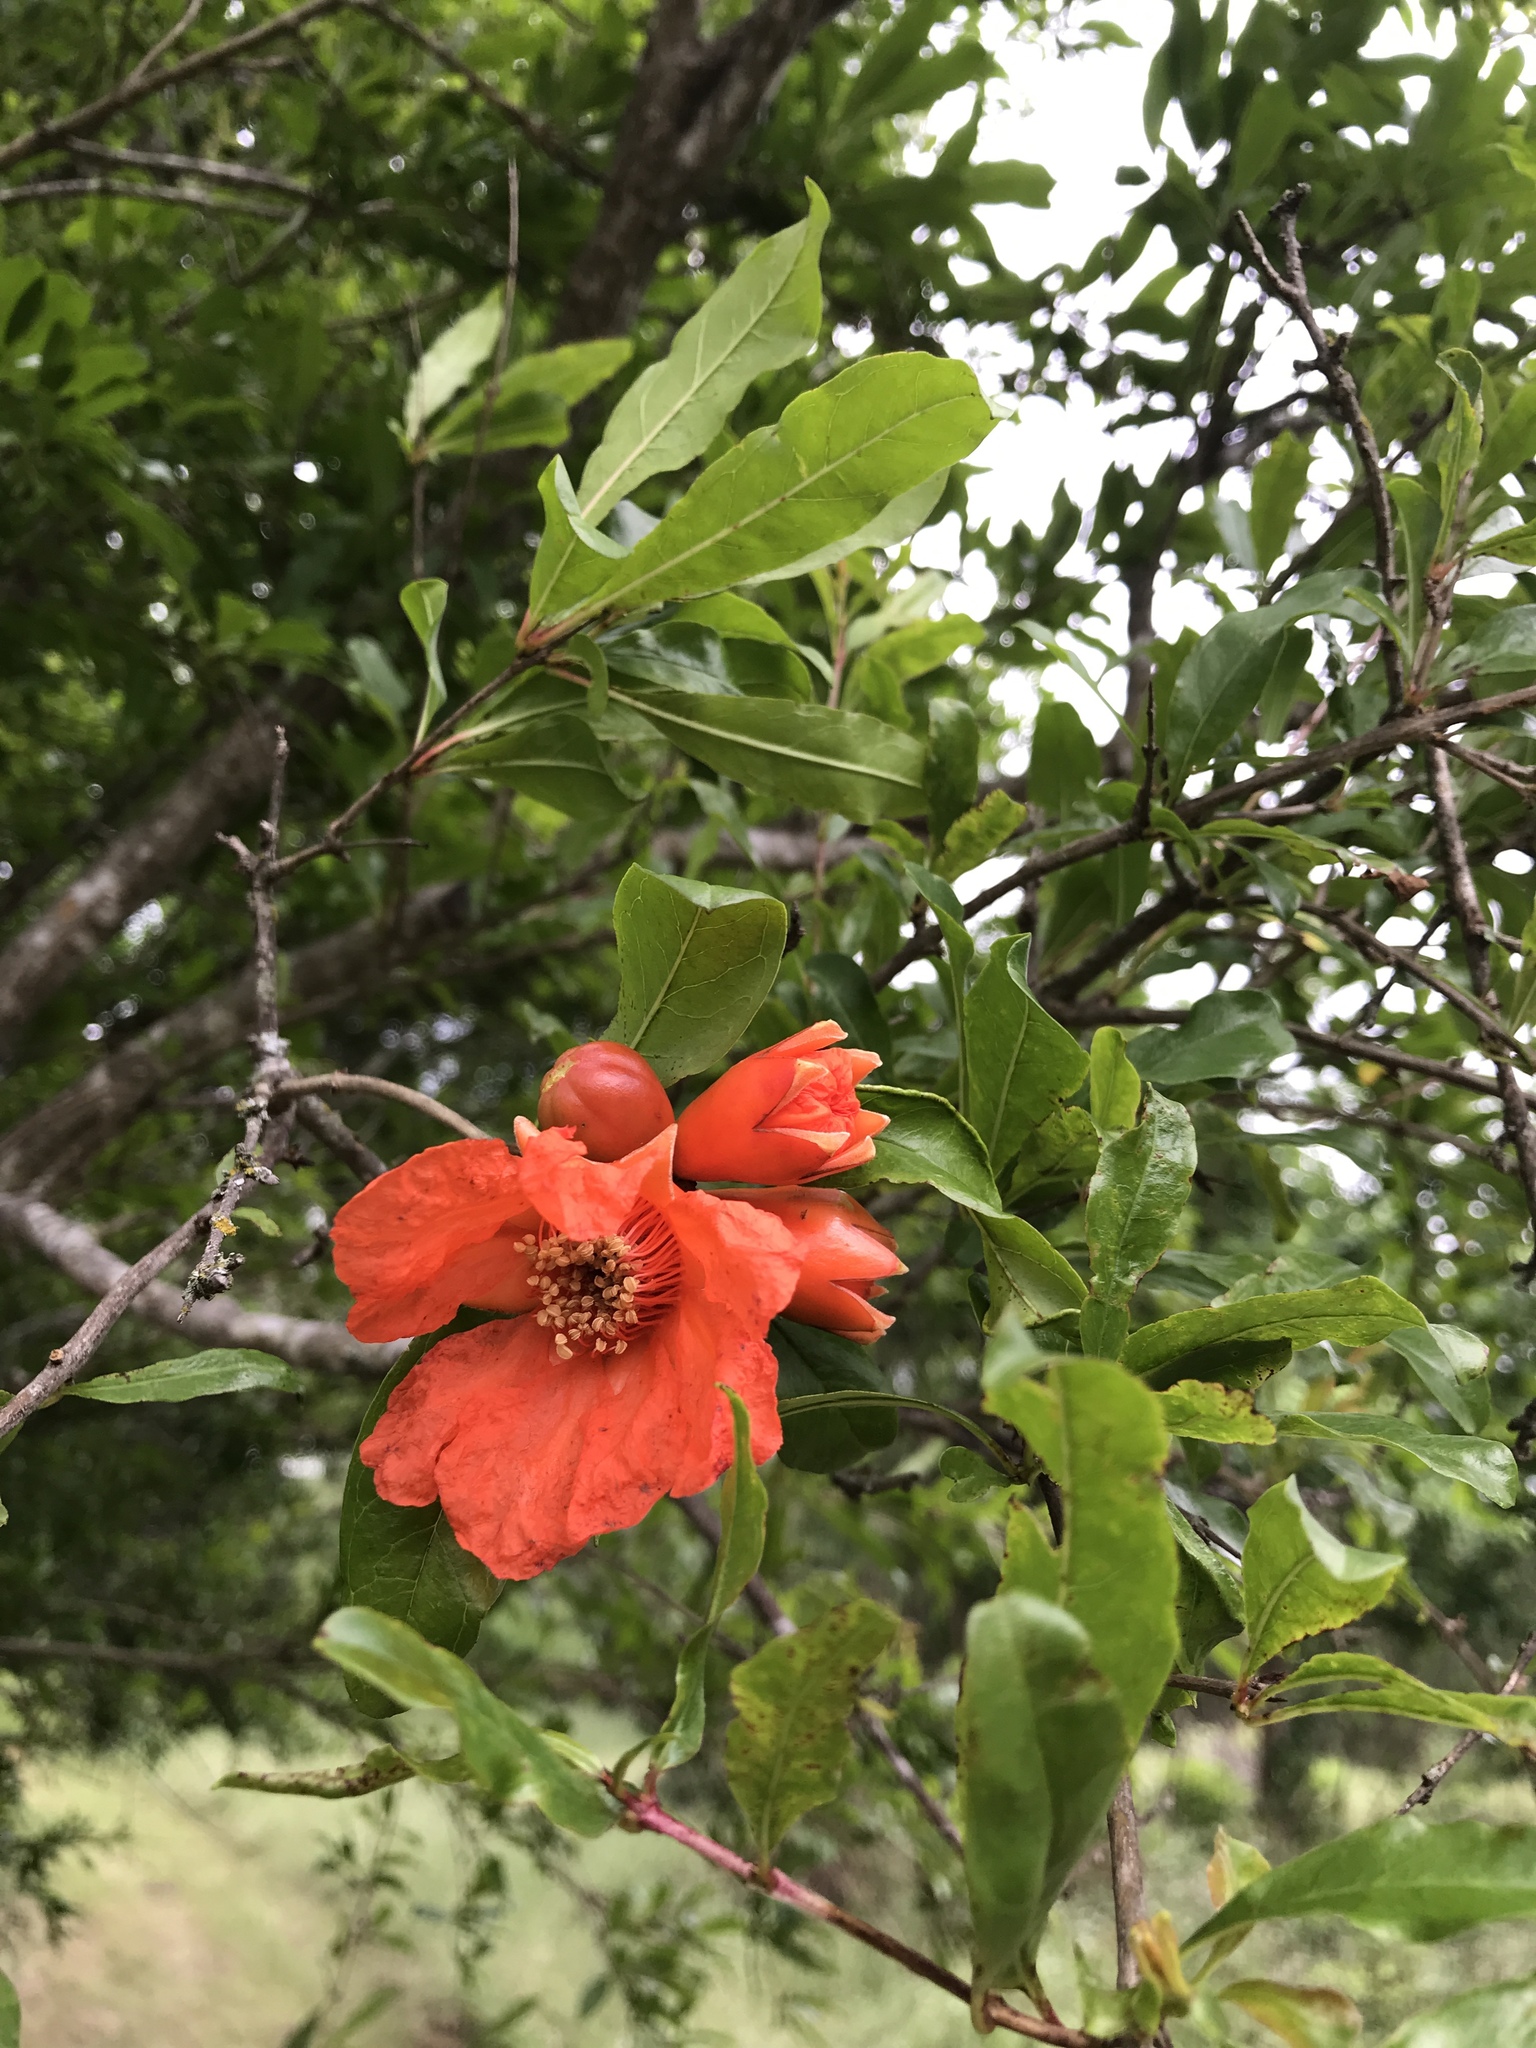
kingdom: Plantae
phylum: Tracheophyta
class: Magnoliopsida
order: Myrtales
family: Lythraceae
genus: Punica
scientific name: Punica granatum
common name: Pomegranate
